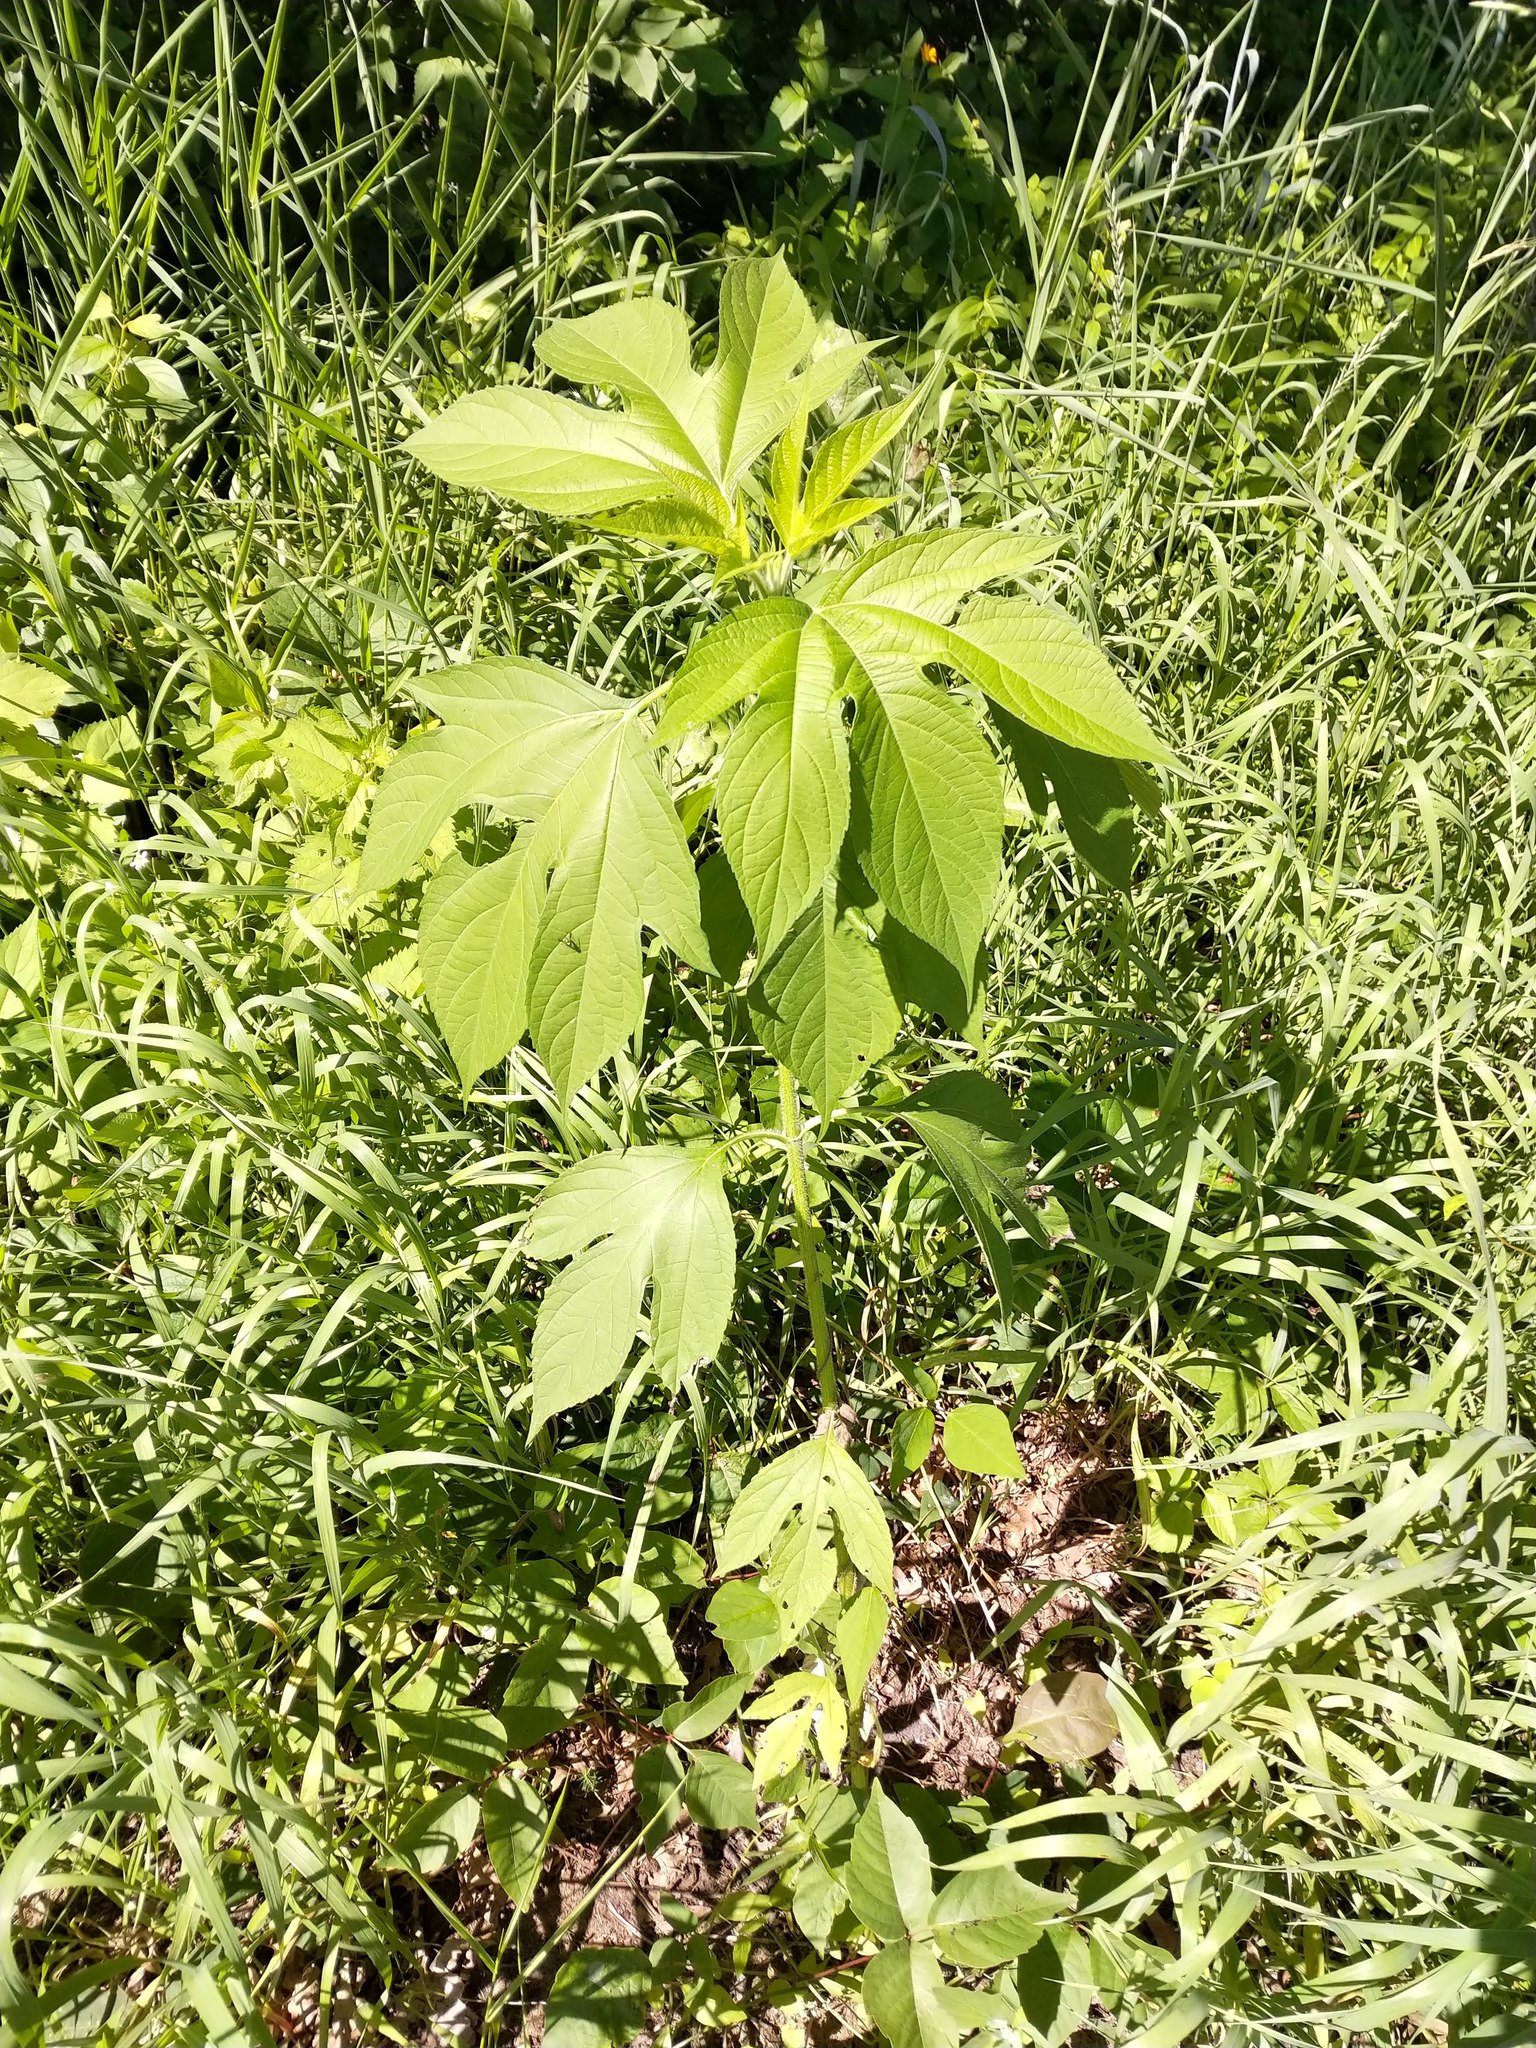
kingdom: Plantae
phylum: Tracheophyta
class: Magnoliopsida
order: Asterales
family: Asteraceae
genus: Ambrosia
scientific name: Ambrosia trifida
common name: Giant ragweed
